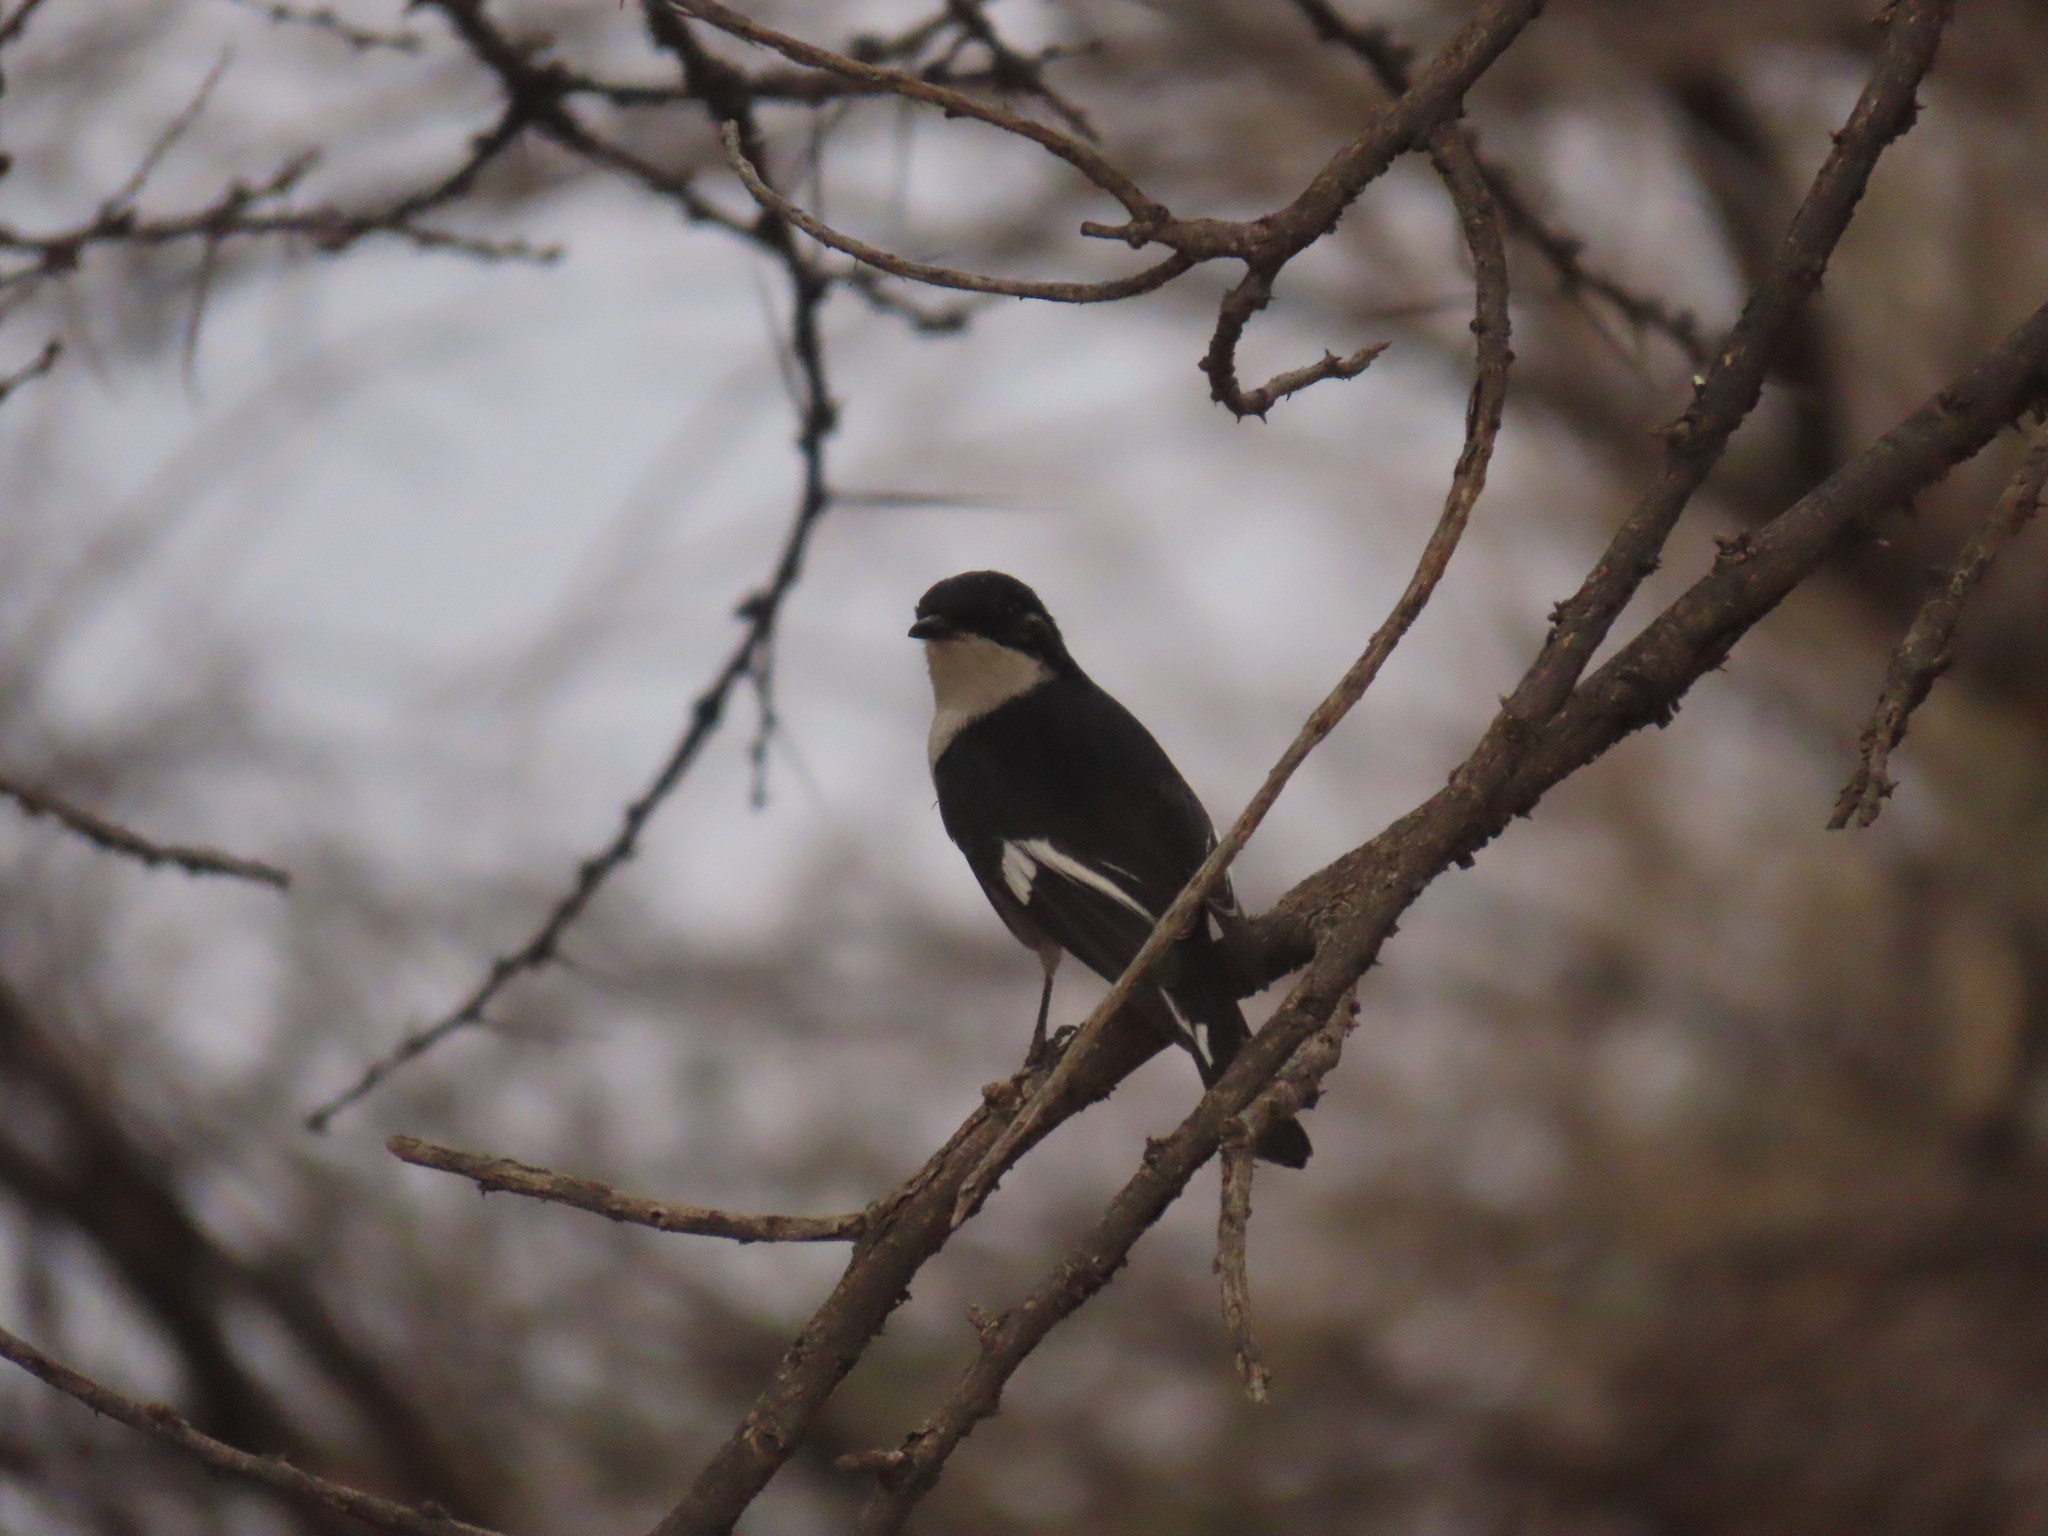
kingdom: Animalia
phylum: Chordata
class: Aves
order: Passeriformes
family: Muscicapidae
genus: Sigelus
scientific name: Sigelus silens
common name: Fiscal flycatcher
